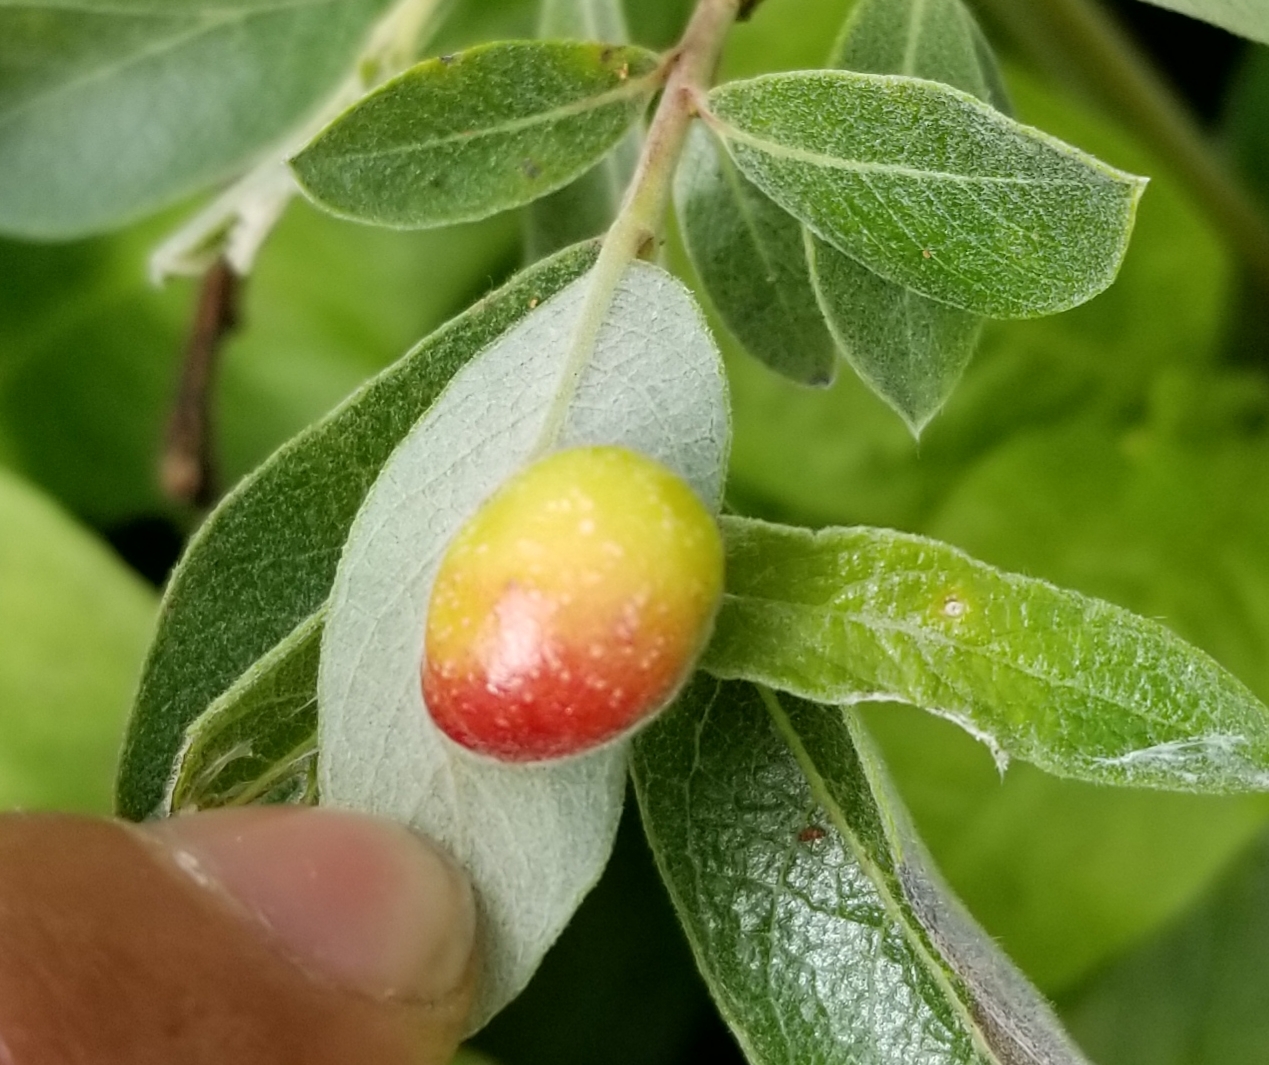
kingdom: Animalia
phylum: Arthropoda
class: Insecta
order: Hymenoptera
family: Tenthredinidae
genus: Euura
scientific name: Euura
